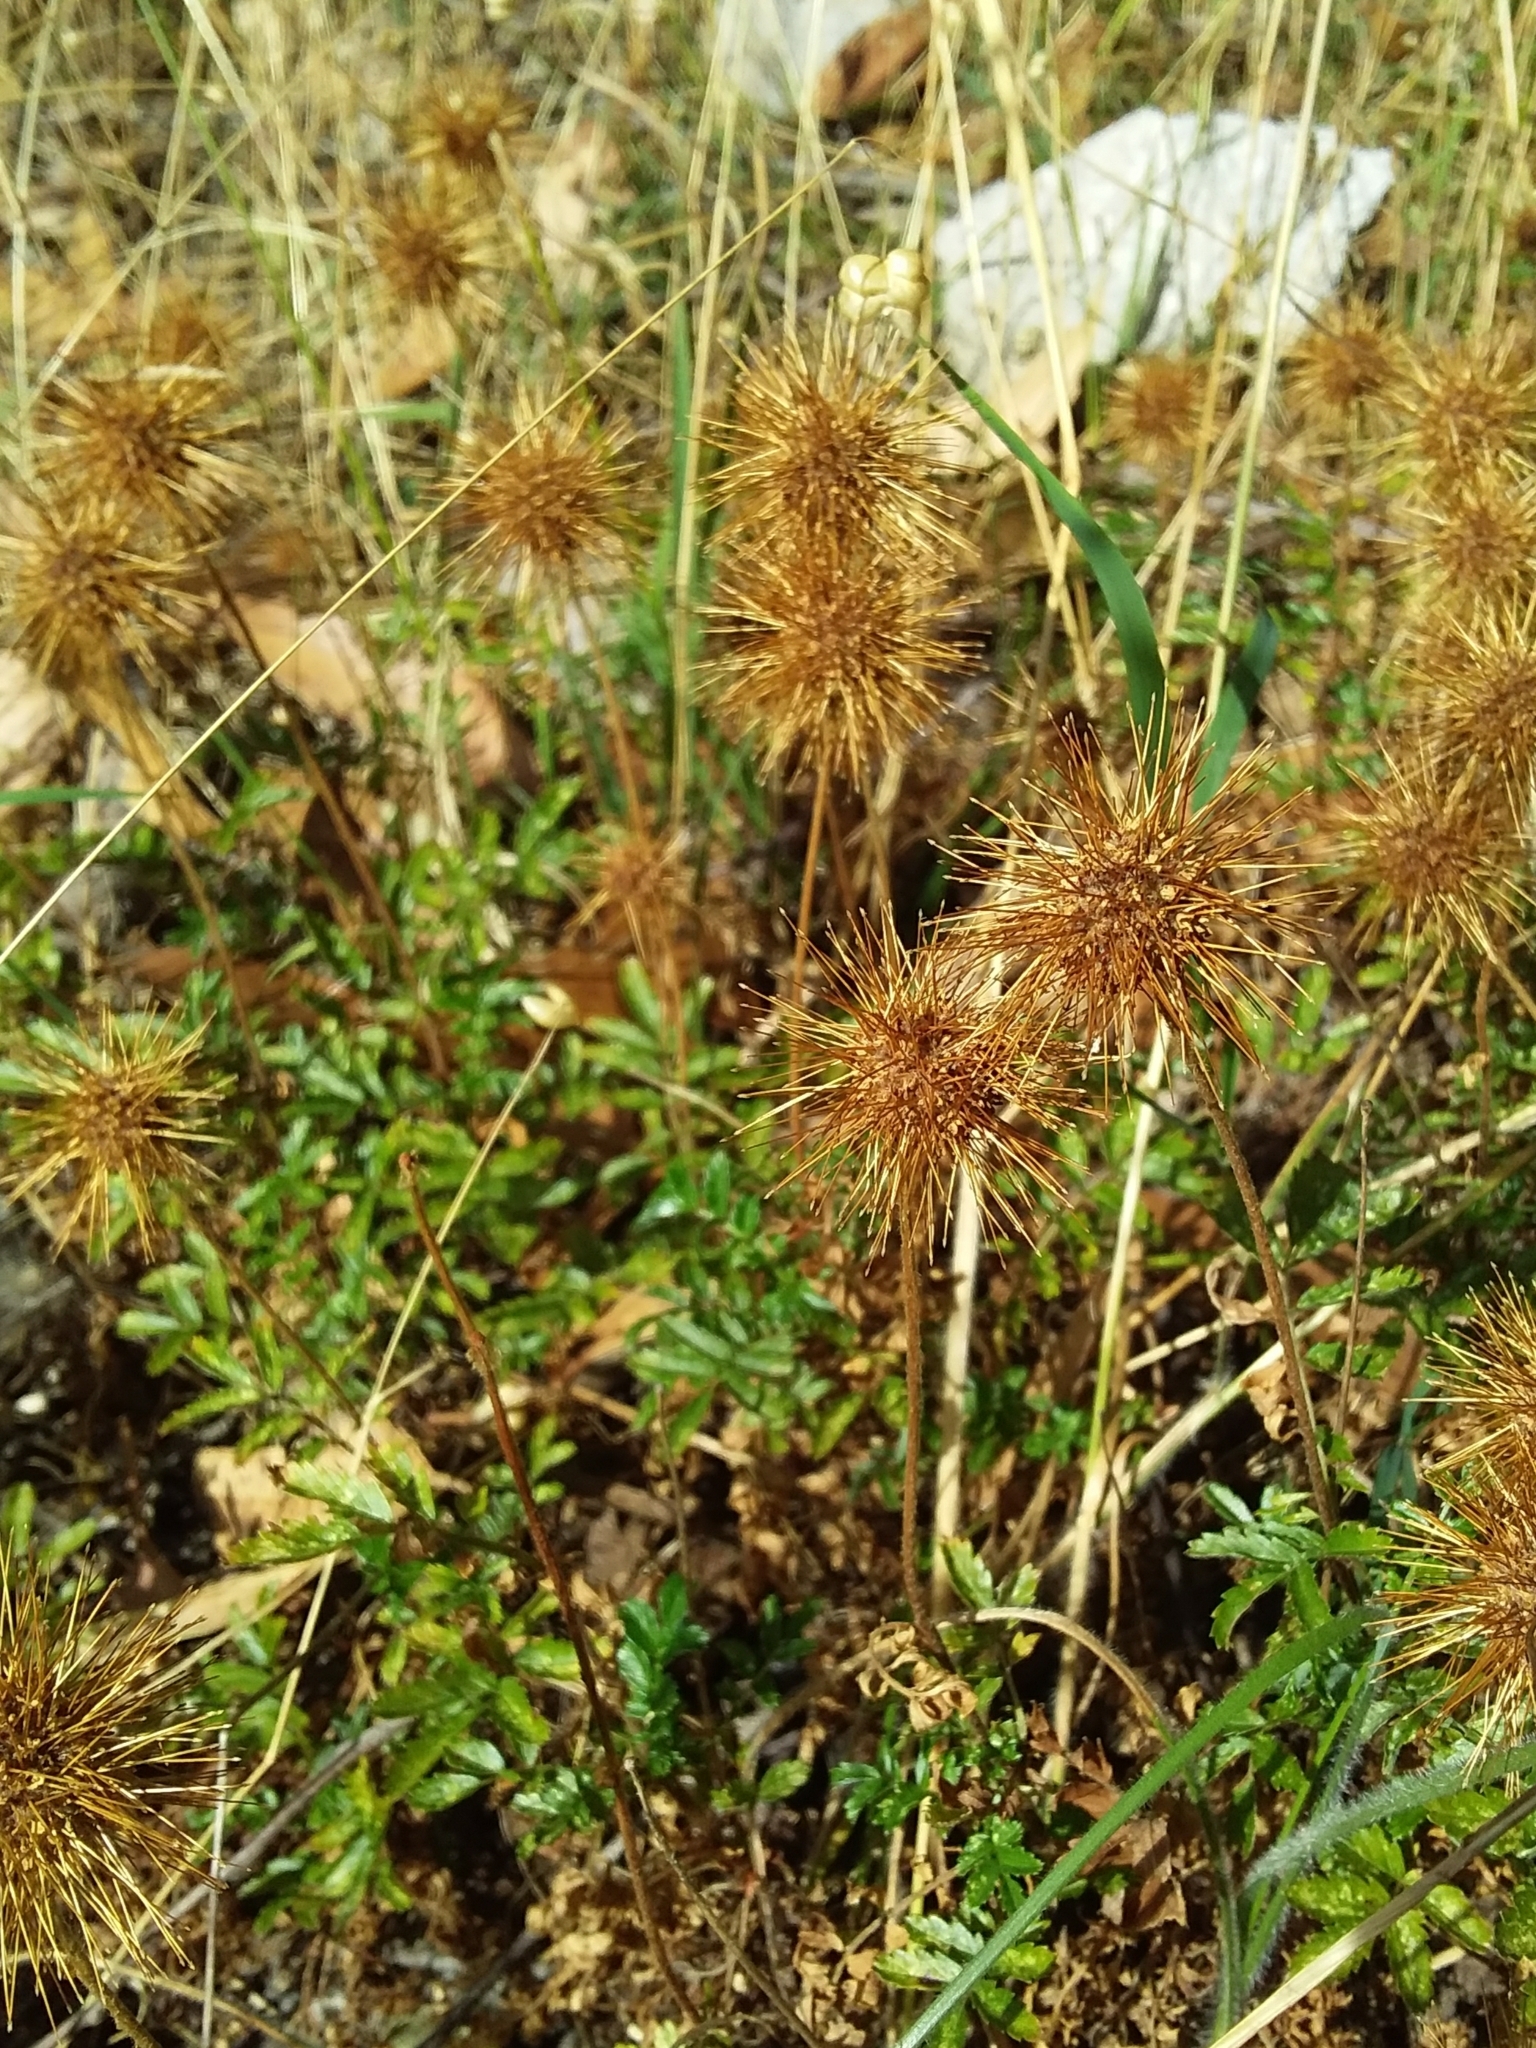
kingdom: Plantae
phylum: Tracheophyta
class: Magnoliopsida
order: Rosales
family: Rosaceae
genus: Acaena
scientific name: Acaena novae-zelandiae
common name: Pirri-pirri-bur
